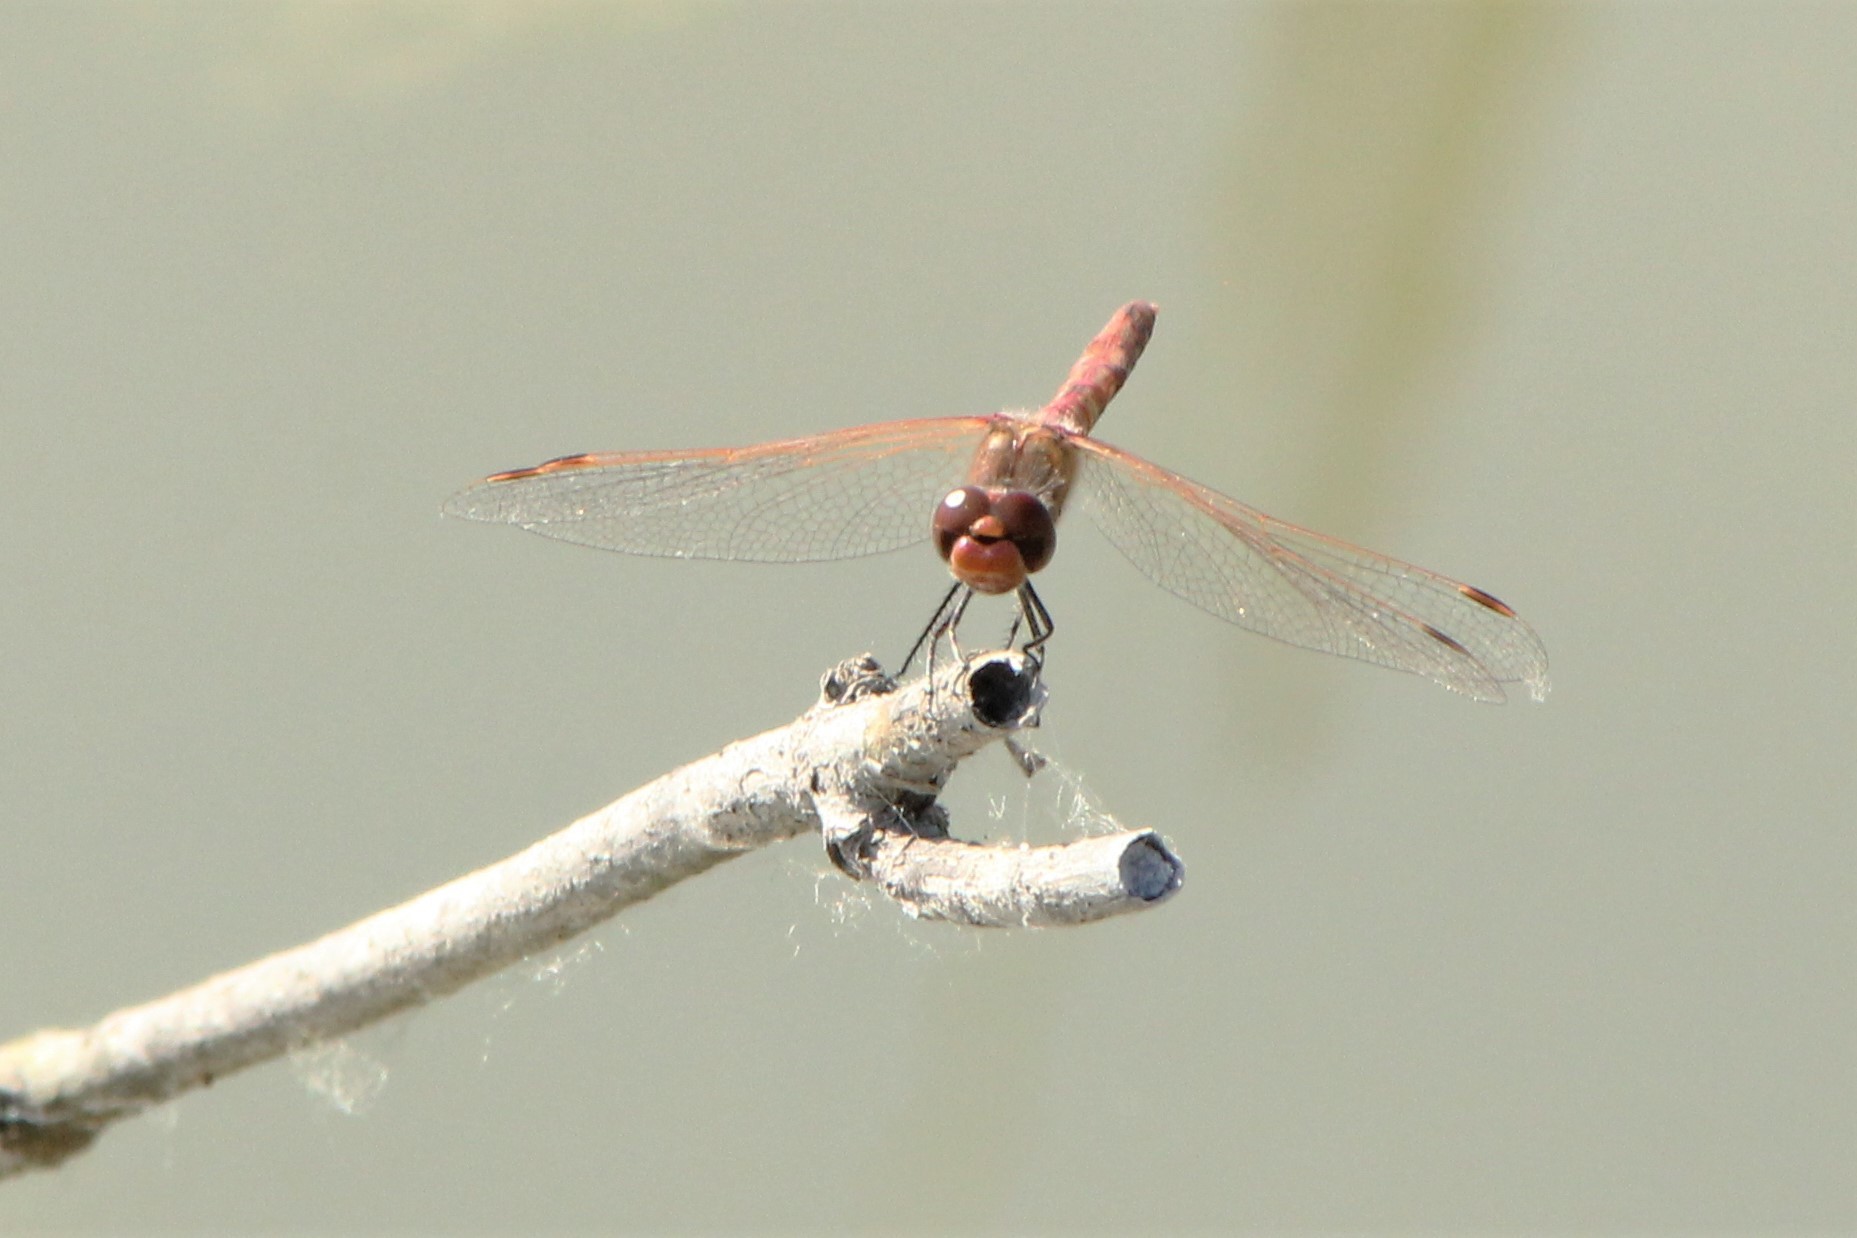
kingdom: Animalia
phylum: Arthropoda
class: Insecta
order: Odonata
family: Libellulidae
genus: Sympetrum
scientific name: Sympetrum corruptum
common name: Variegated meadowhawk
